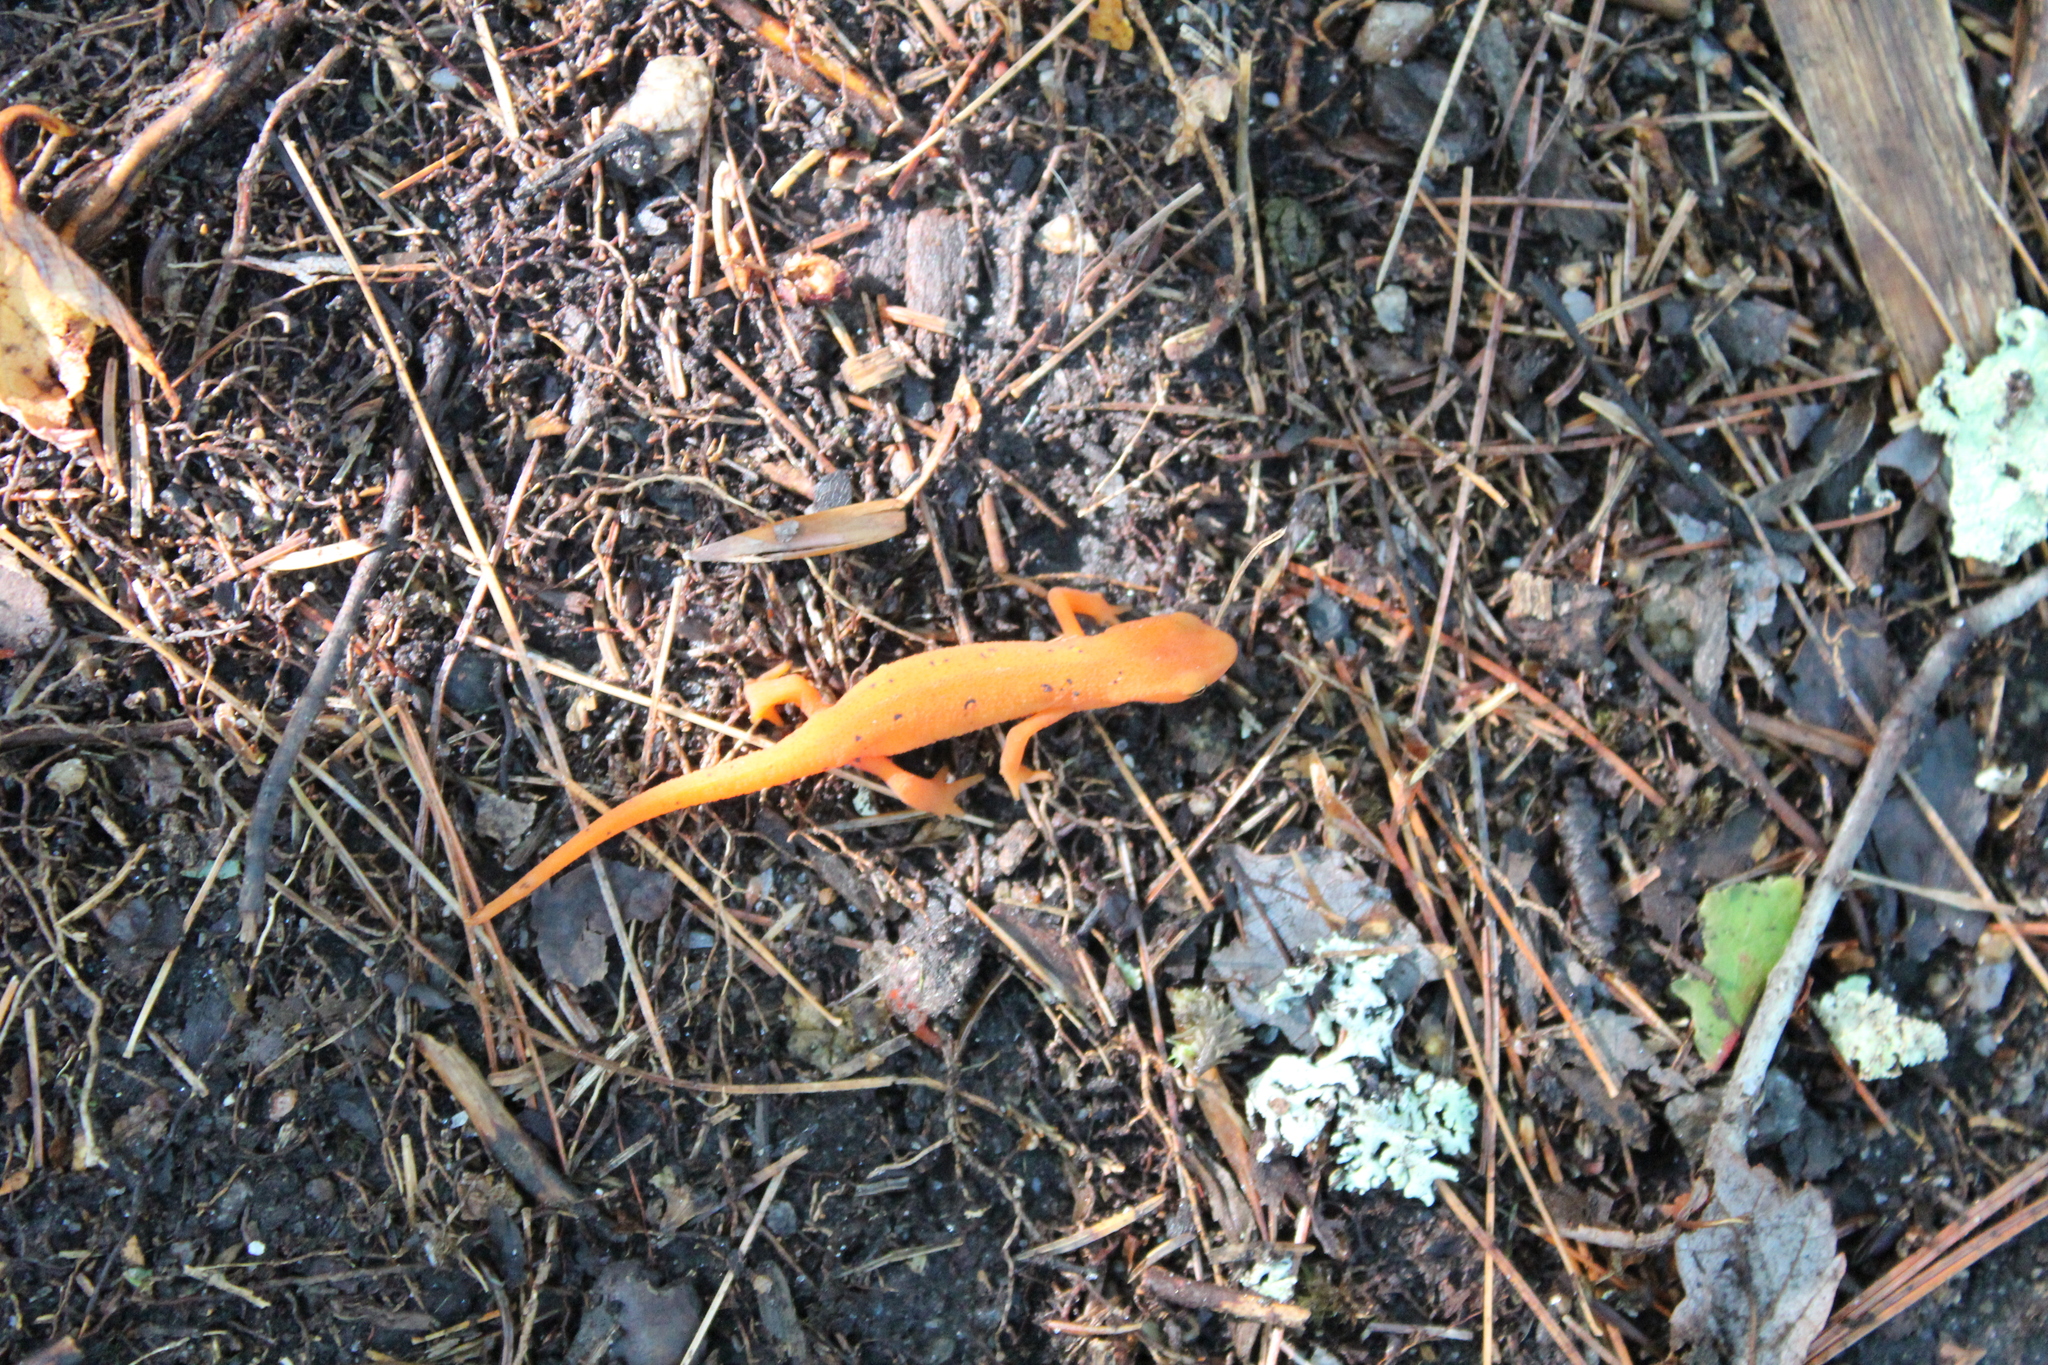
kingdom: Animalia
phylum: Chordata
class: Amphibia
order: Caudata
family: Salamandridae
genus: Notophthalmus
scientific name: Notophthalmus viridescens
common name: Eastern newt
